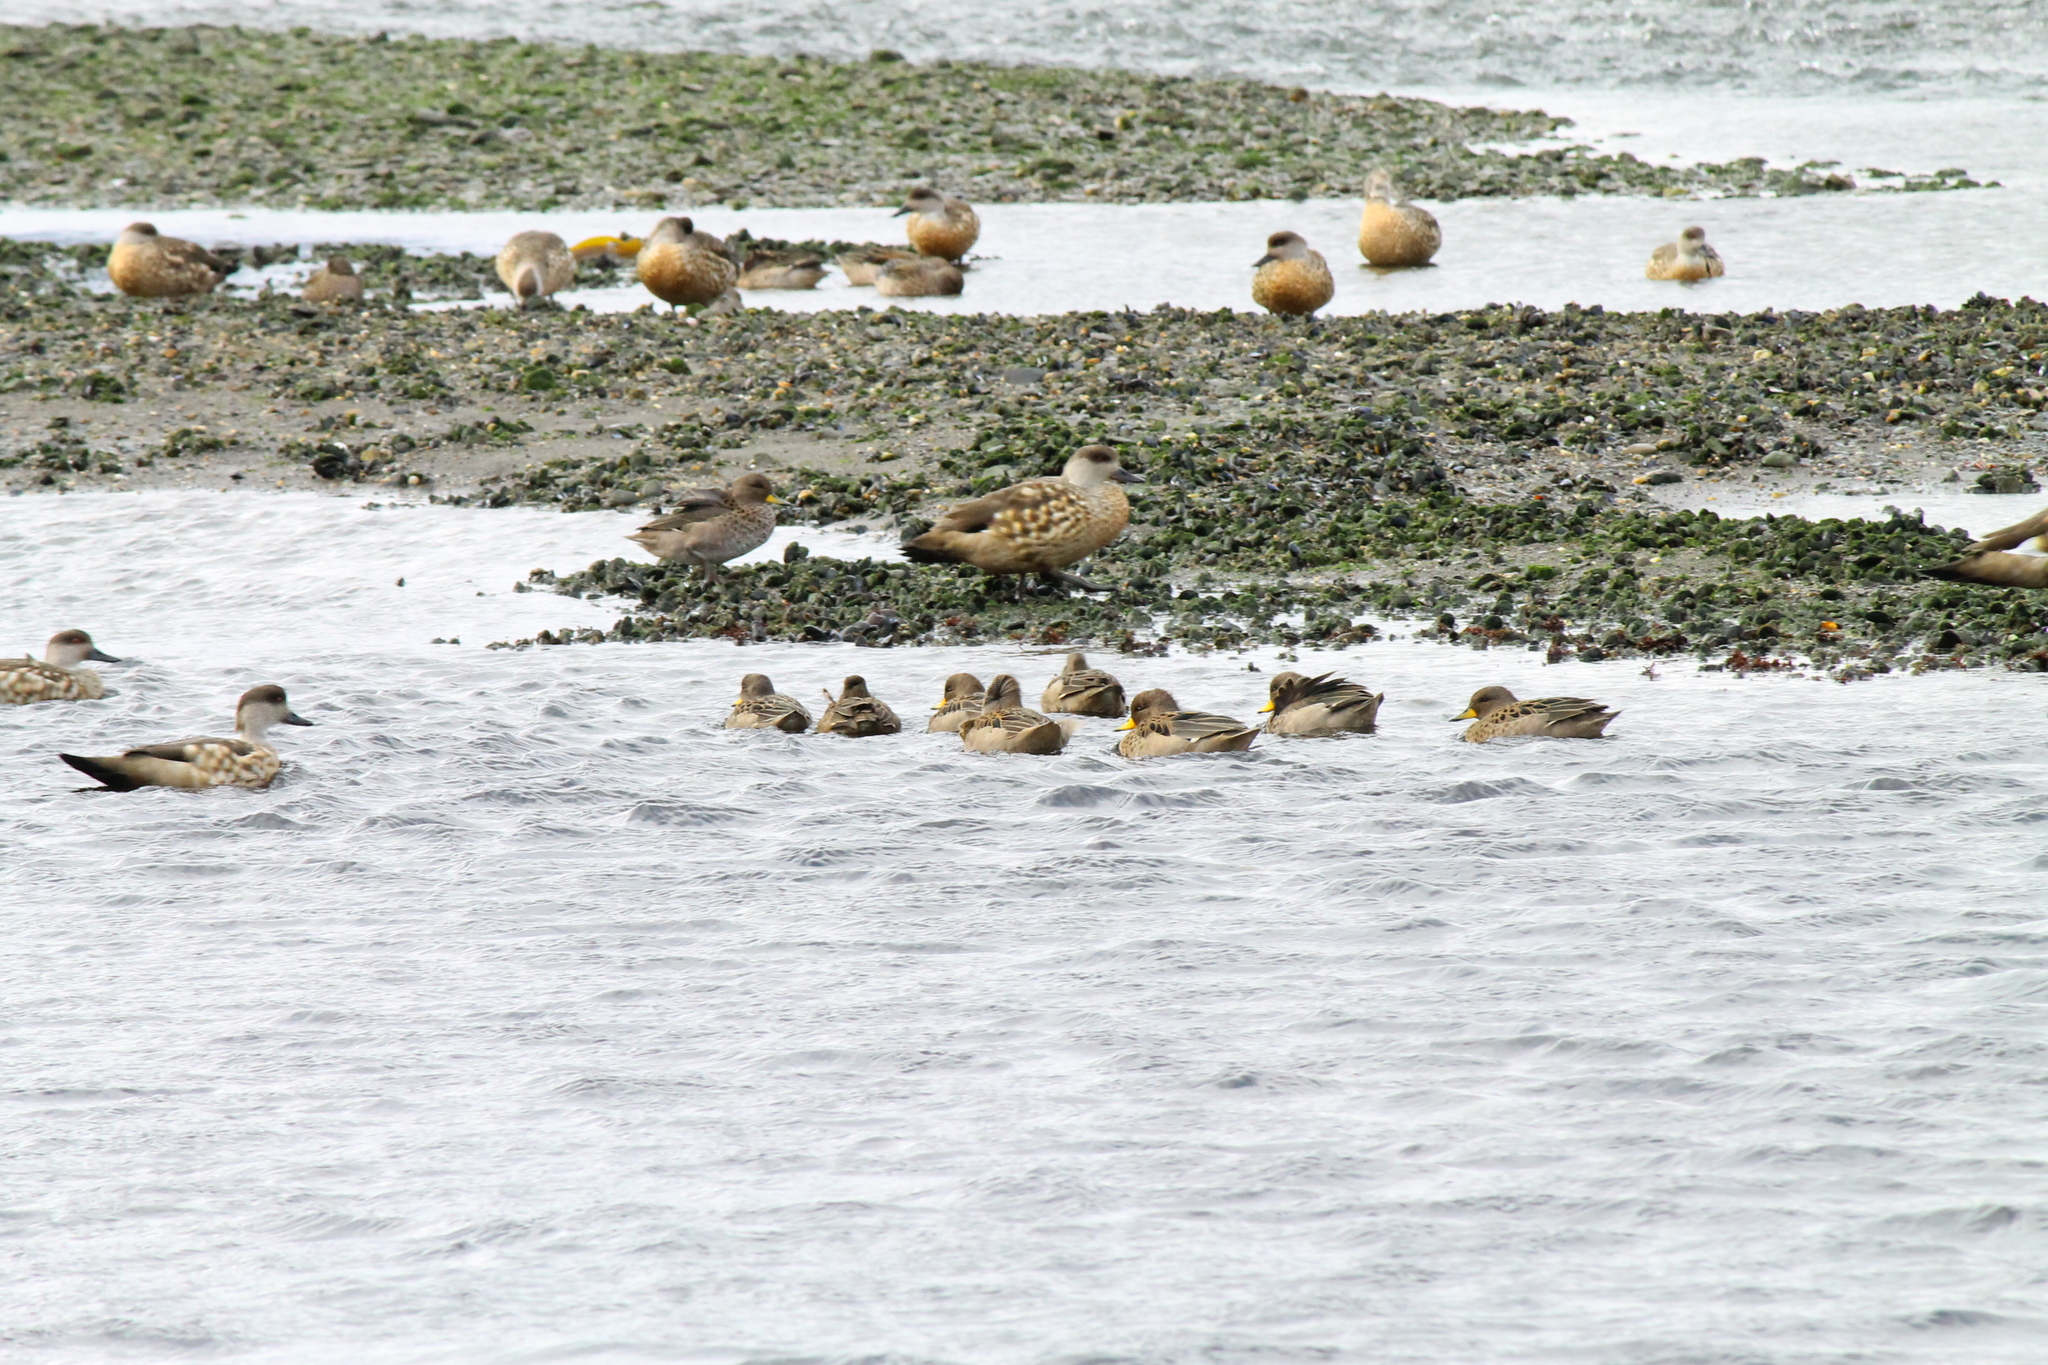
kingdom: Animalia
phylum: Chordata
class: Aves
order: Anseriformes
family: Anatidae
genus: Anas
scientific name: Anas flavirostris
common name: Yellow-billed teal
